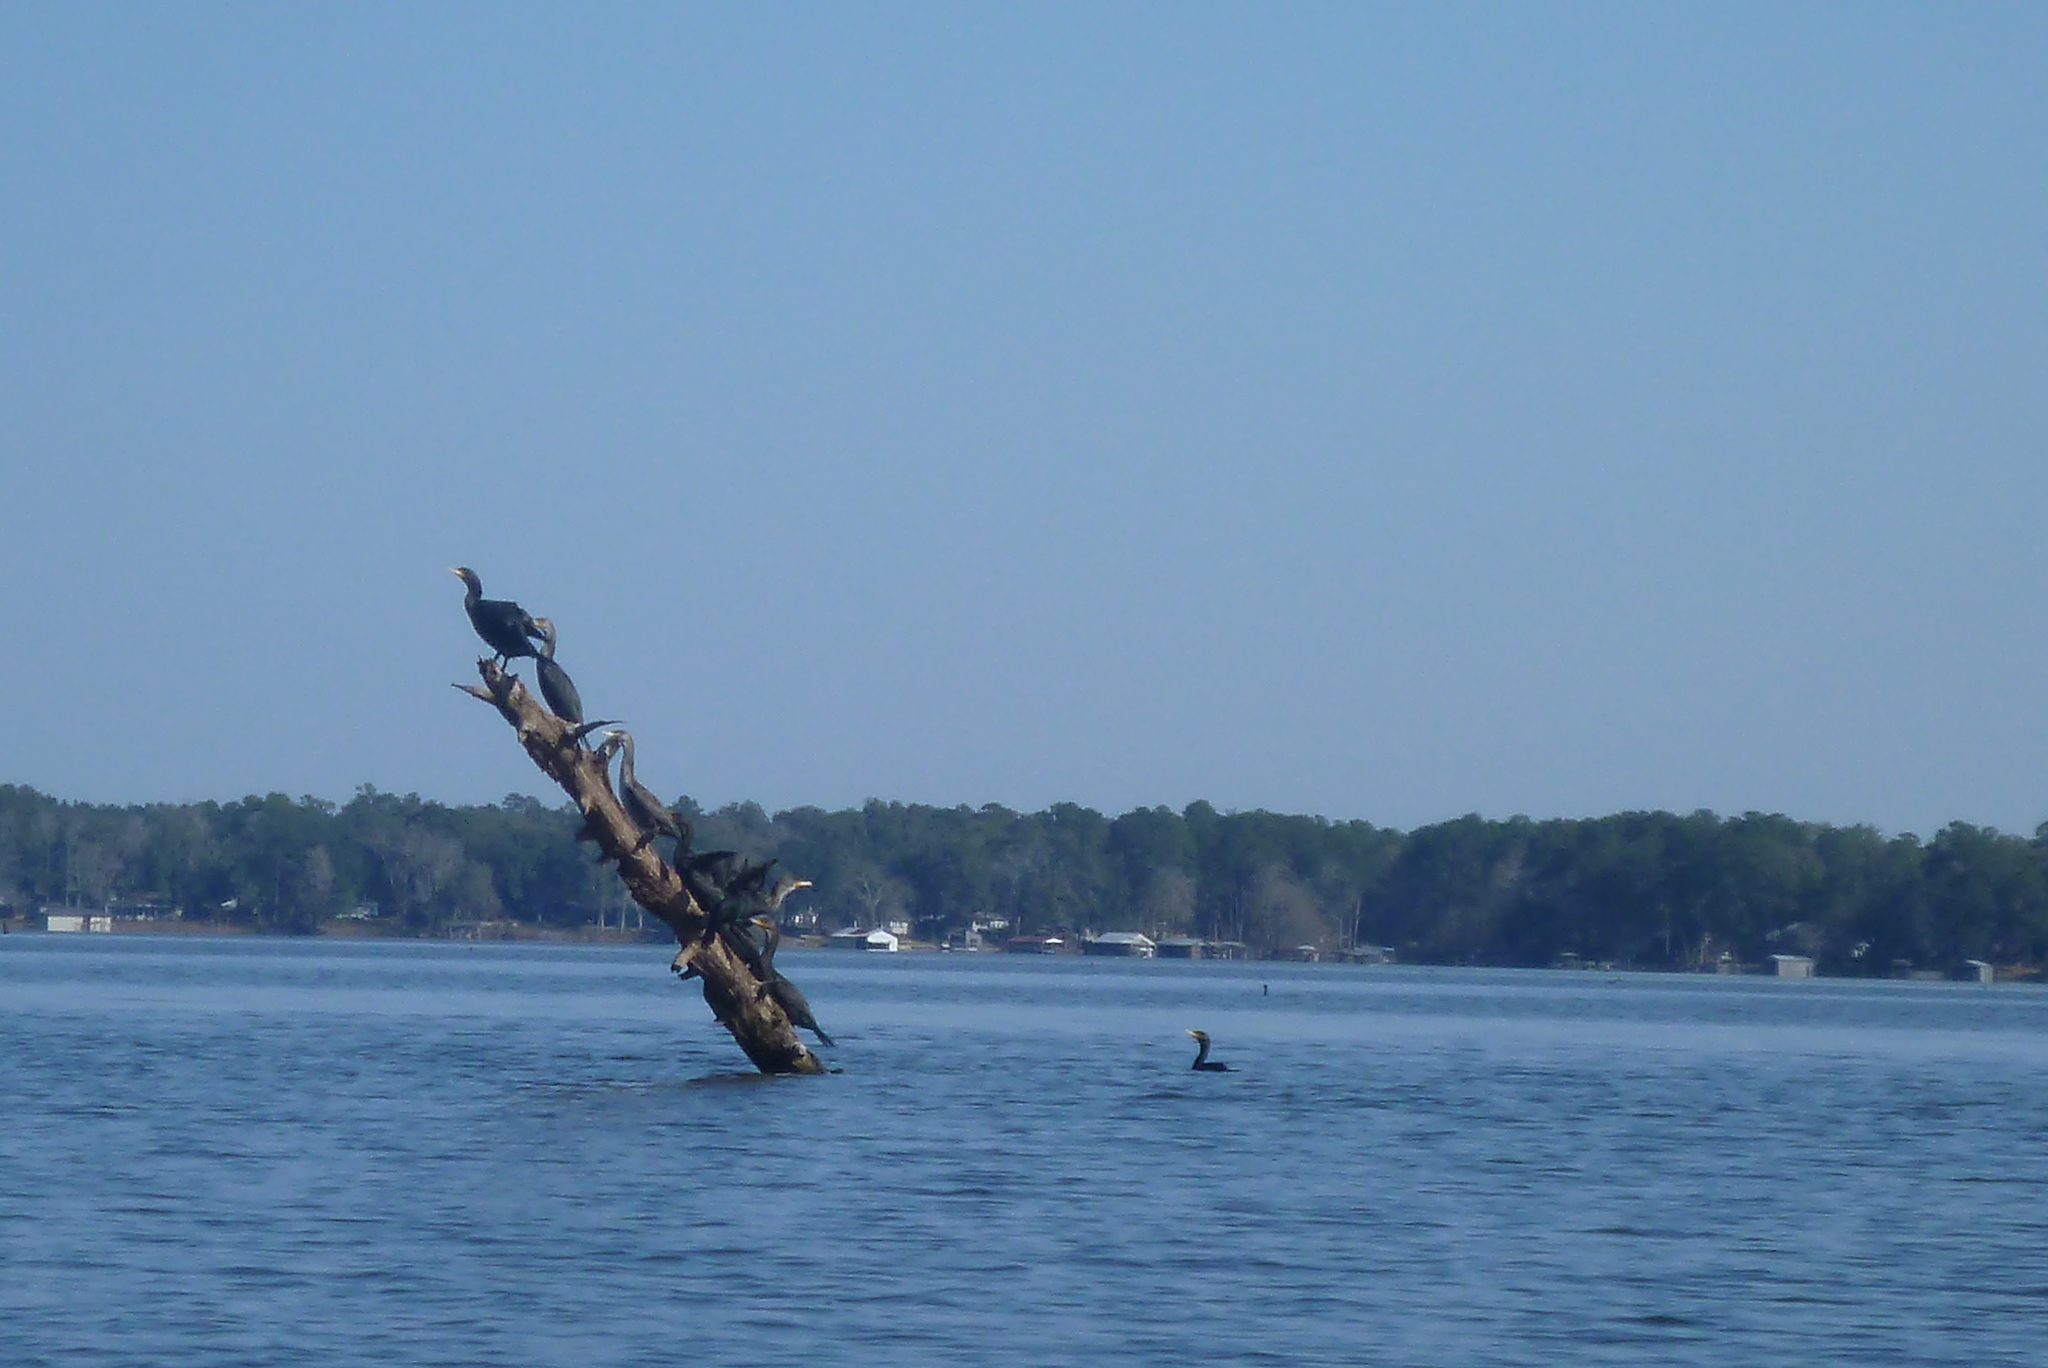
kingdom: Animalia
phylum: Chordata
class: Aves
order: Suliformes
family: Phalacrocoracidae
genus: Phalacrocorax
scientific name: Phalacrocorax auritus
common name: Double-crested cormorant
